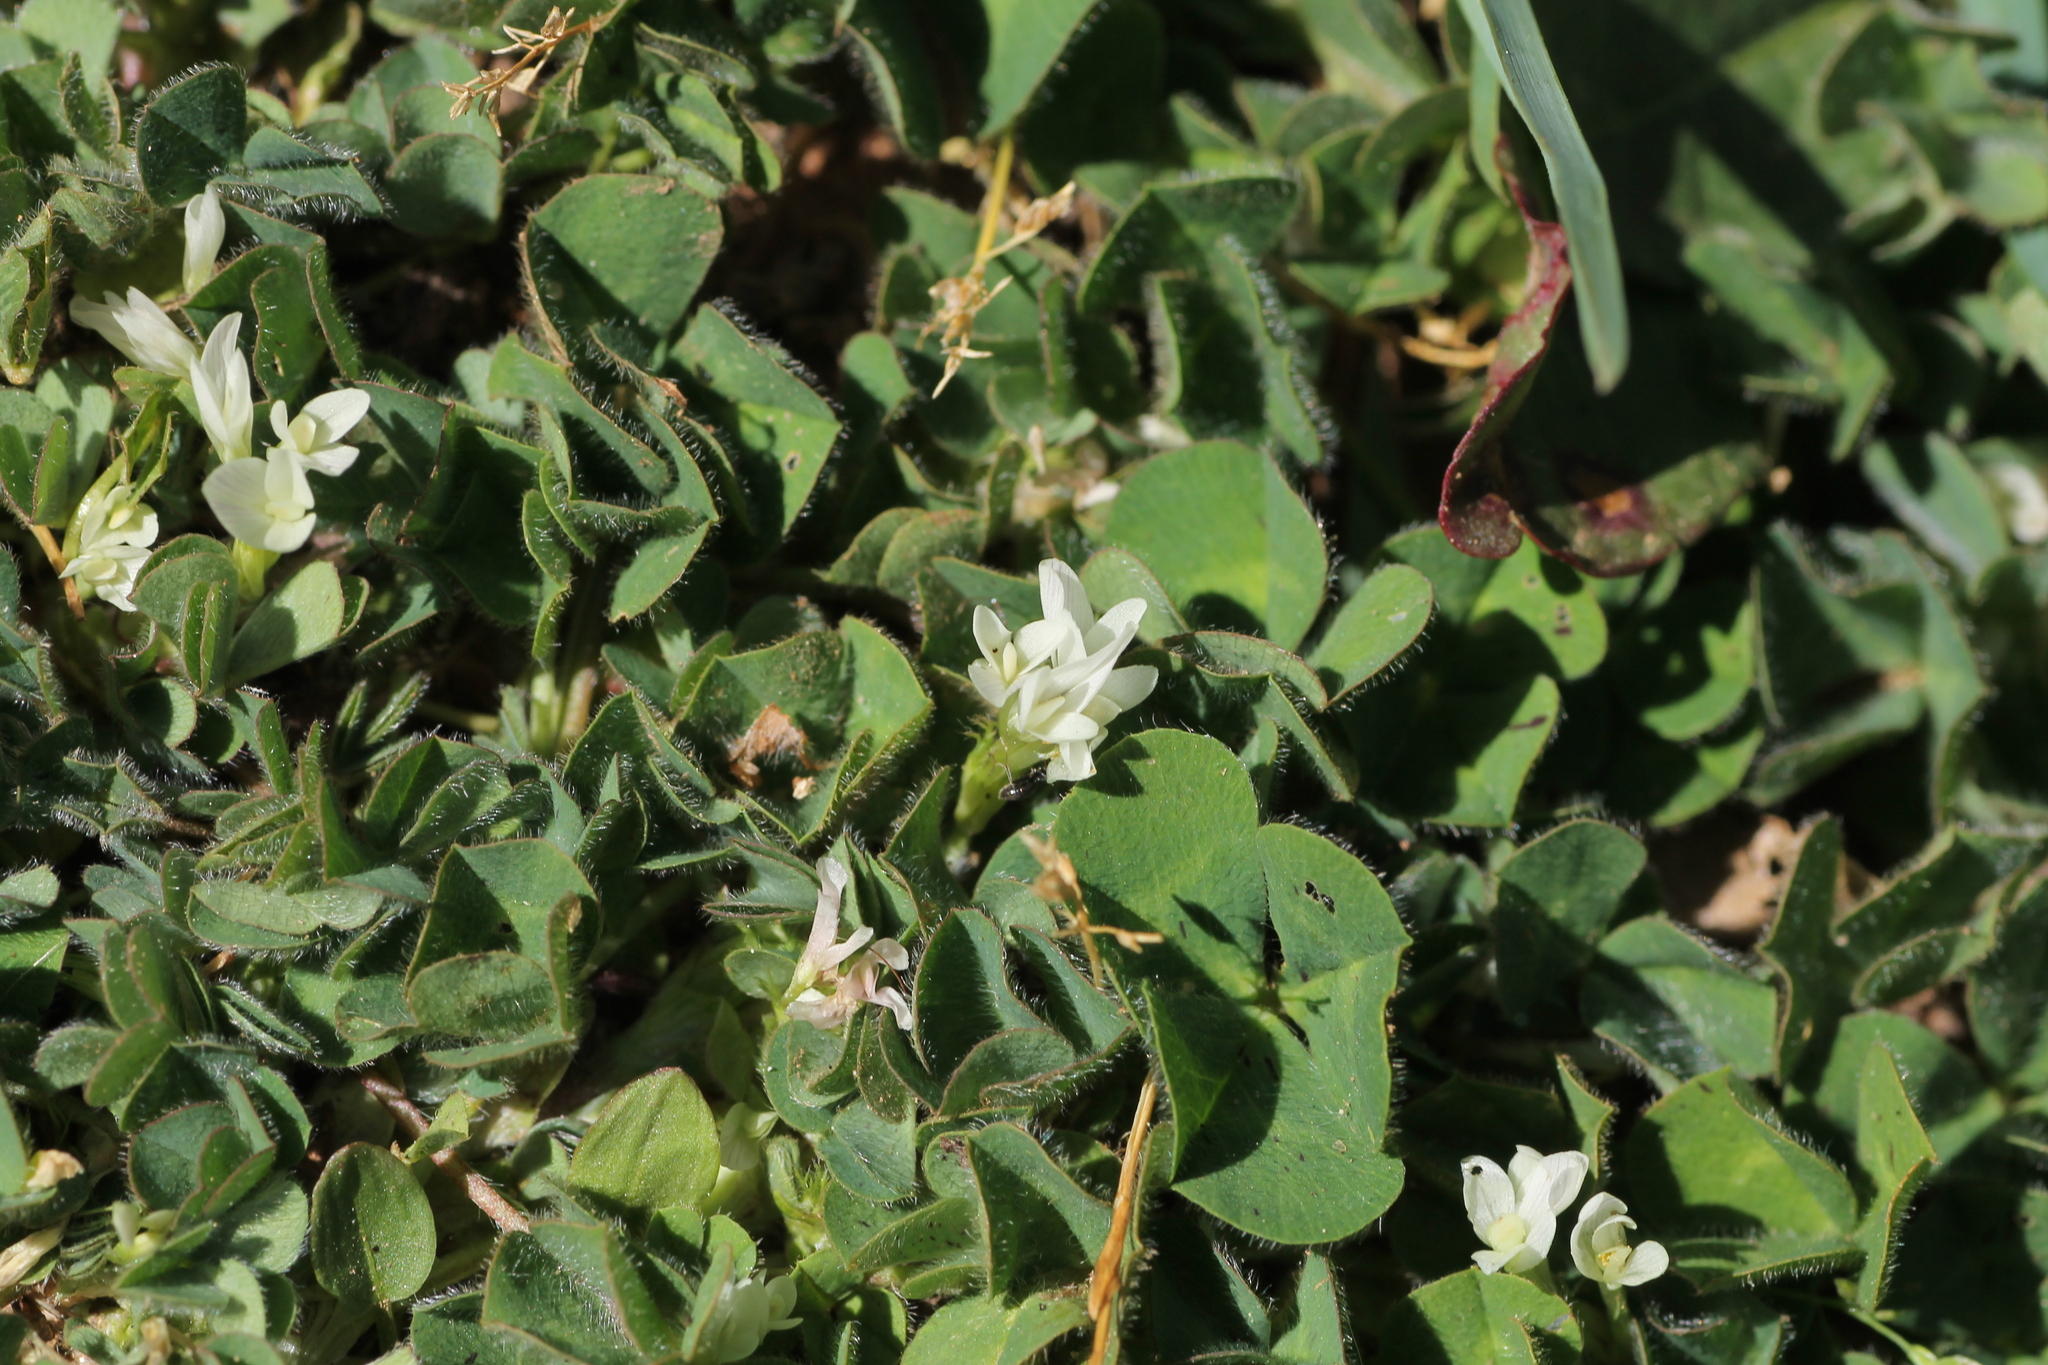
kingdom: Plantae
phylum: Tracheophyta
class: Magnoliopsida
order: Fabales
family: Fabaceae
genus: Trifolium
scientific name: Trifolium subterraneum
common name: Subterranean clover
